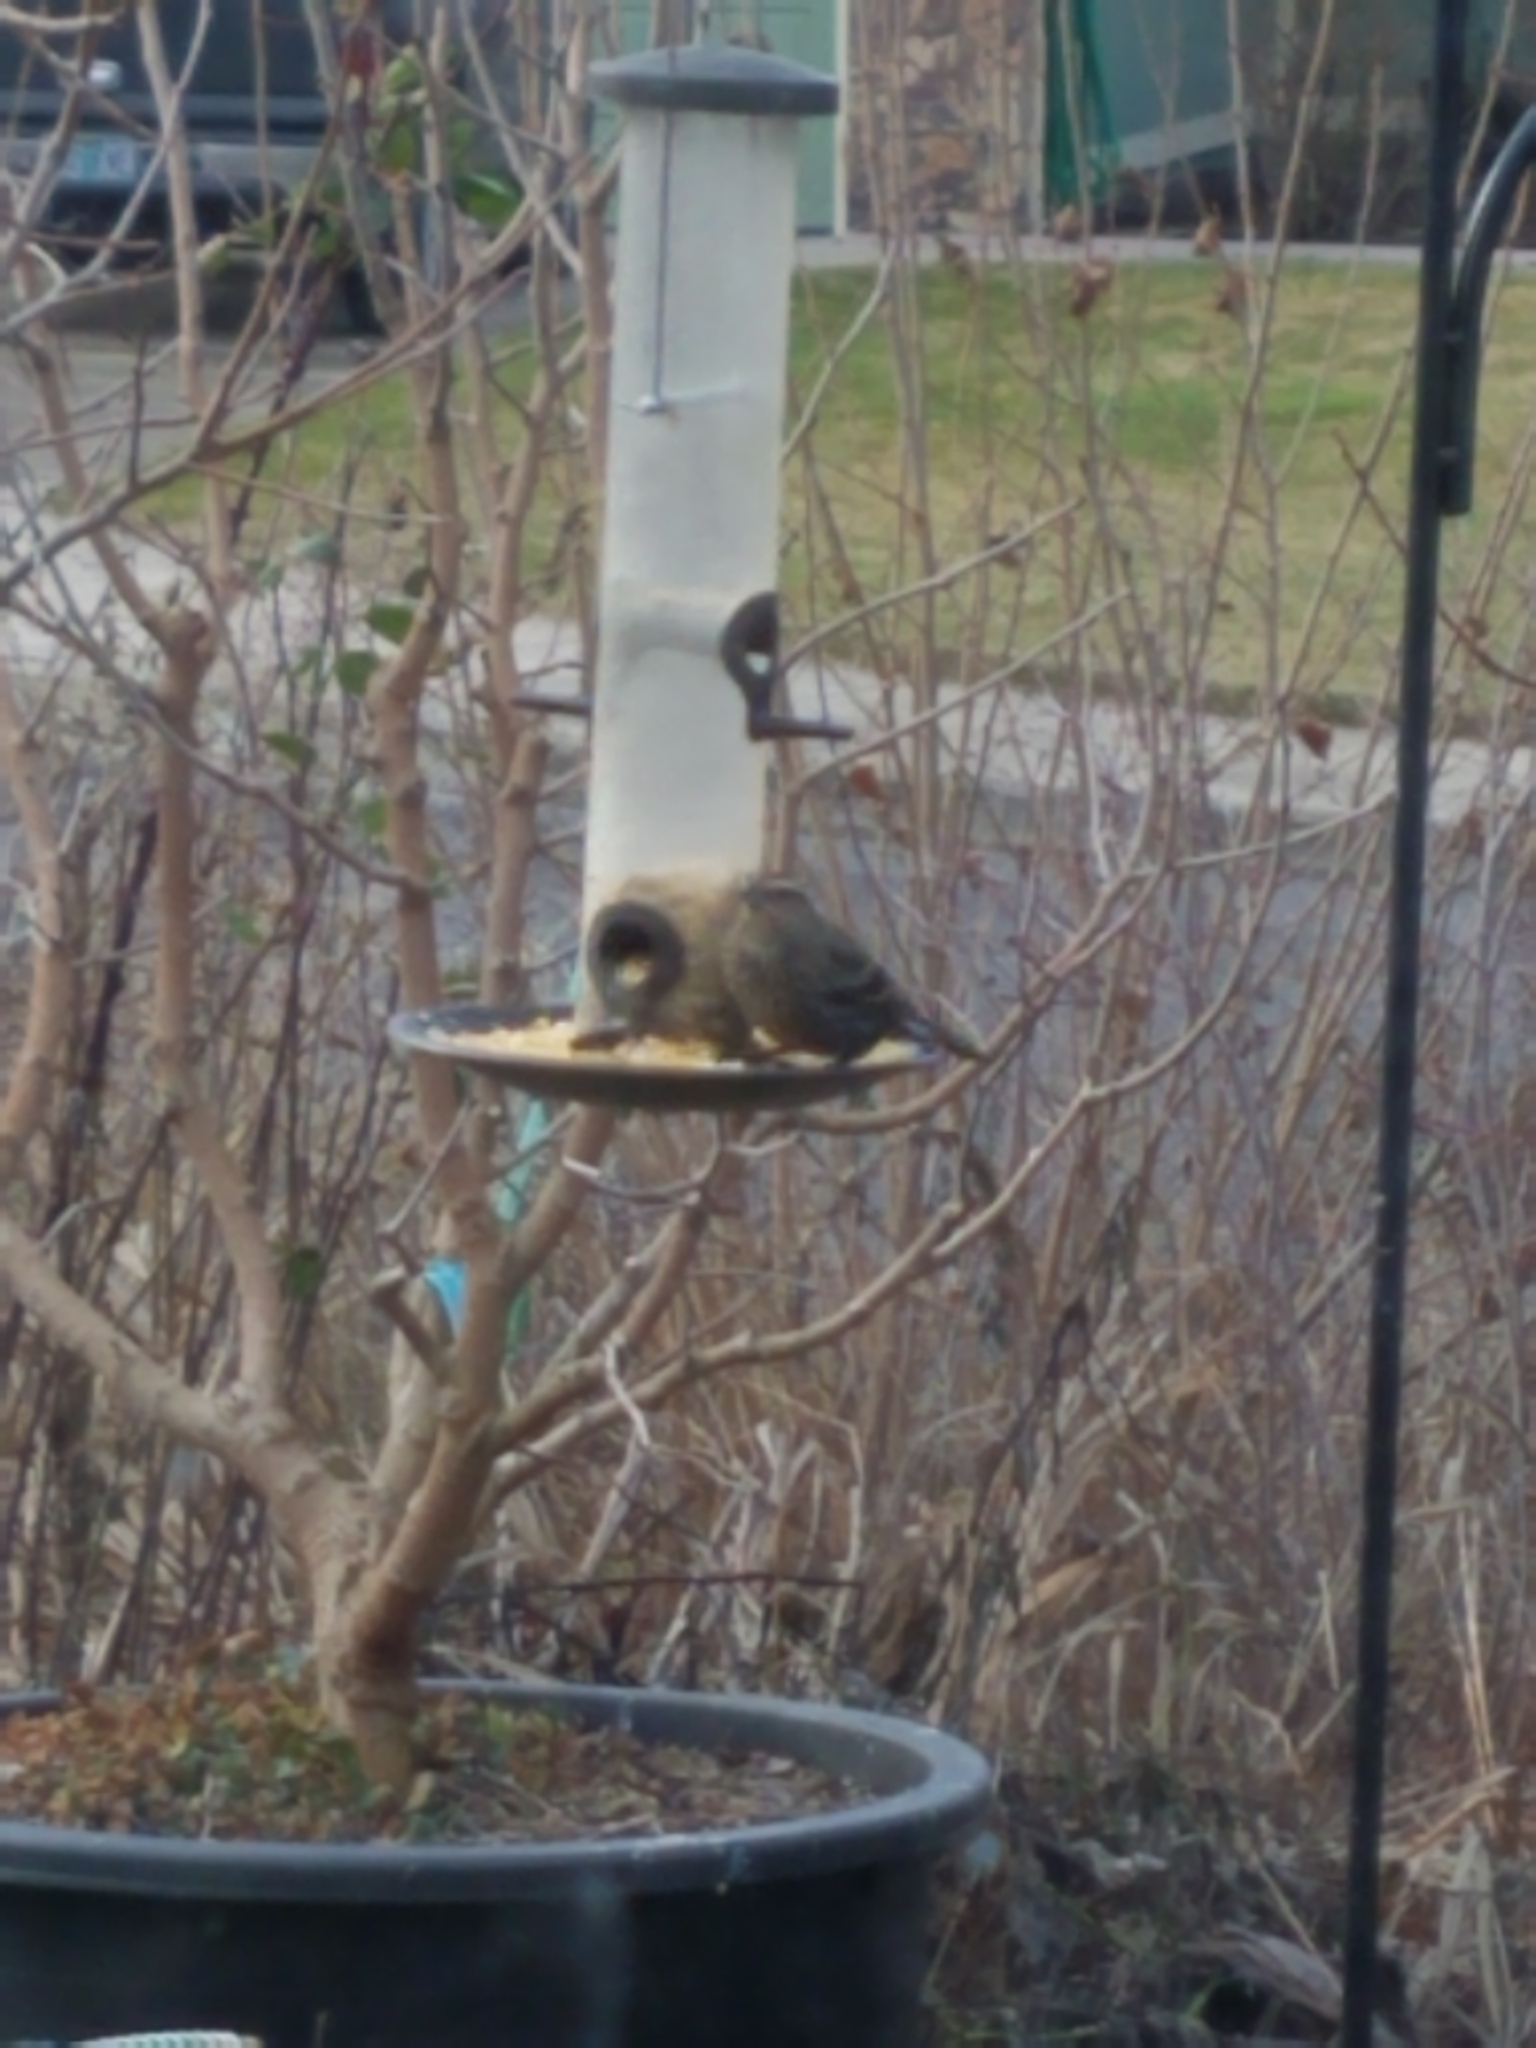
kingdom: Animalia
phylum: Chordata
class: Aves
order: Passeriformes
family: Icteridae
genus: Agelaius
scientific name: Agelaius phoeniceus
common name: Red-winged blackbird
